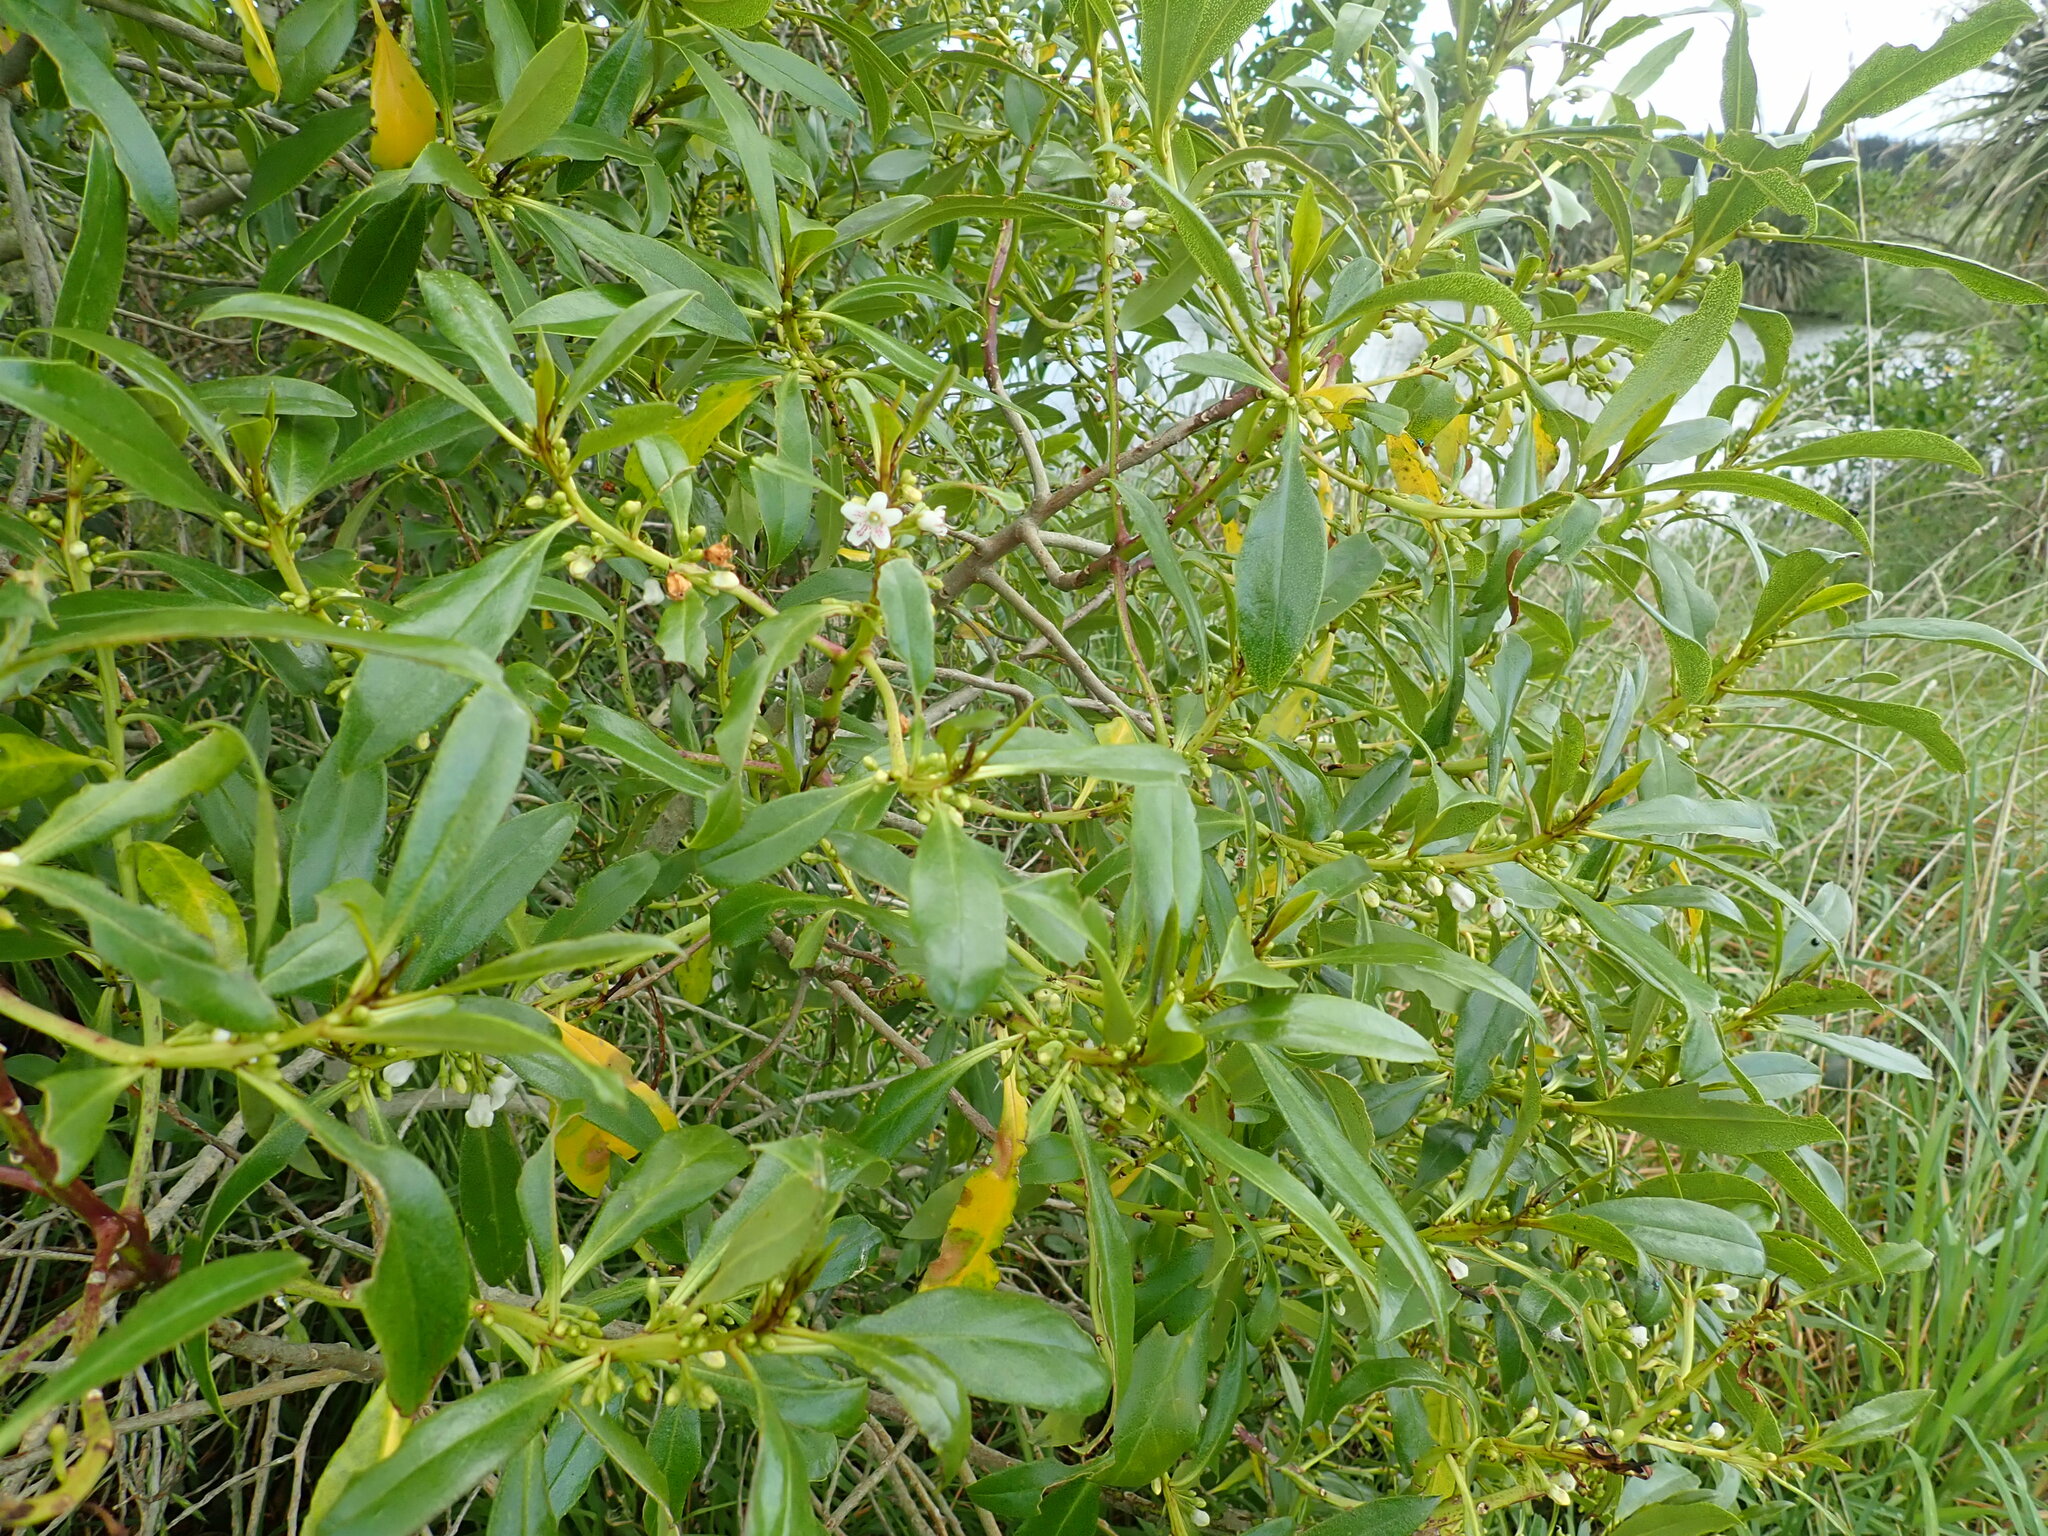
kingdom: Plantae
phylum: Tracheophyta
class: Magnoliopsida
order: Lamiales
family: Scrophulariaceae
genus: Myoporum
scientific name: Myoporum laetum
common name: Ngaio tree
